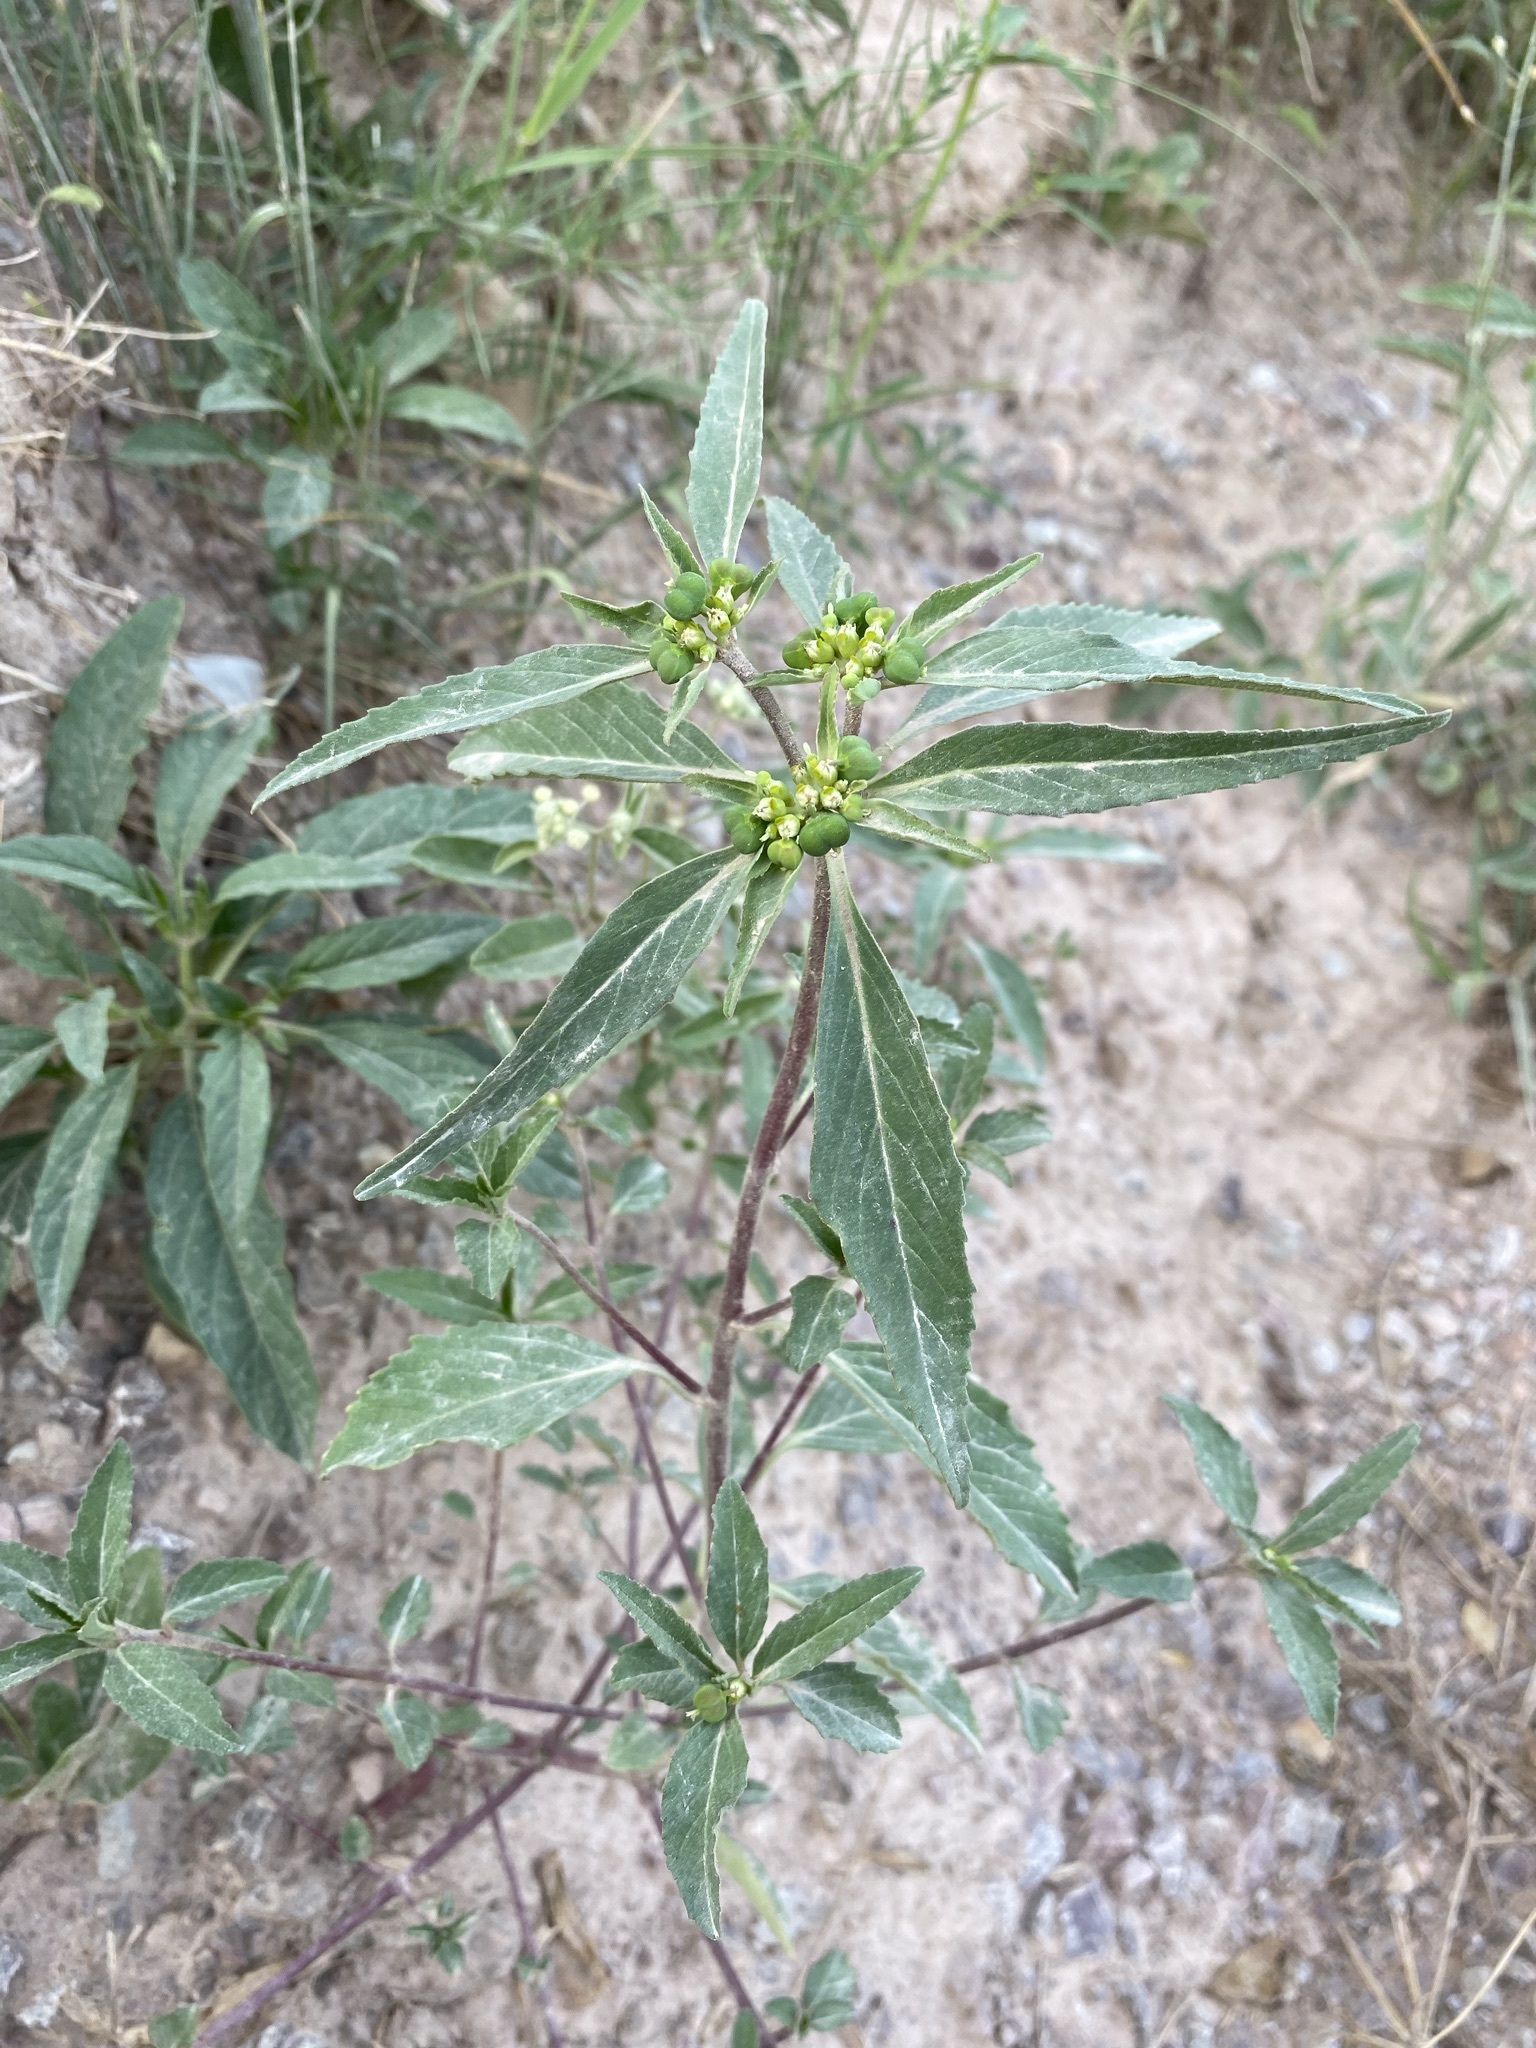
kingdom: Plantae
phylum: Tracheophyta
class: Magnoliopsida
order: Malpighiales
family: Euphorbiaceae
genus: Euphorbia
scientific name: Euphorbia davidii
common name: David's spurge
